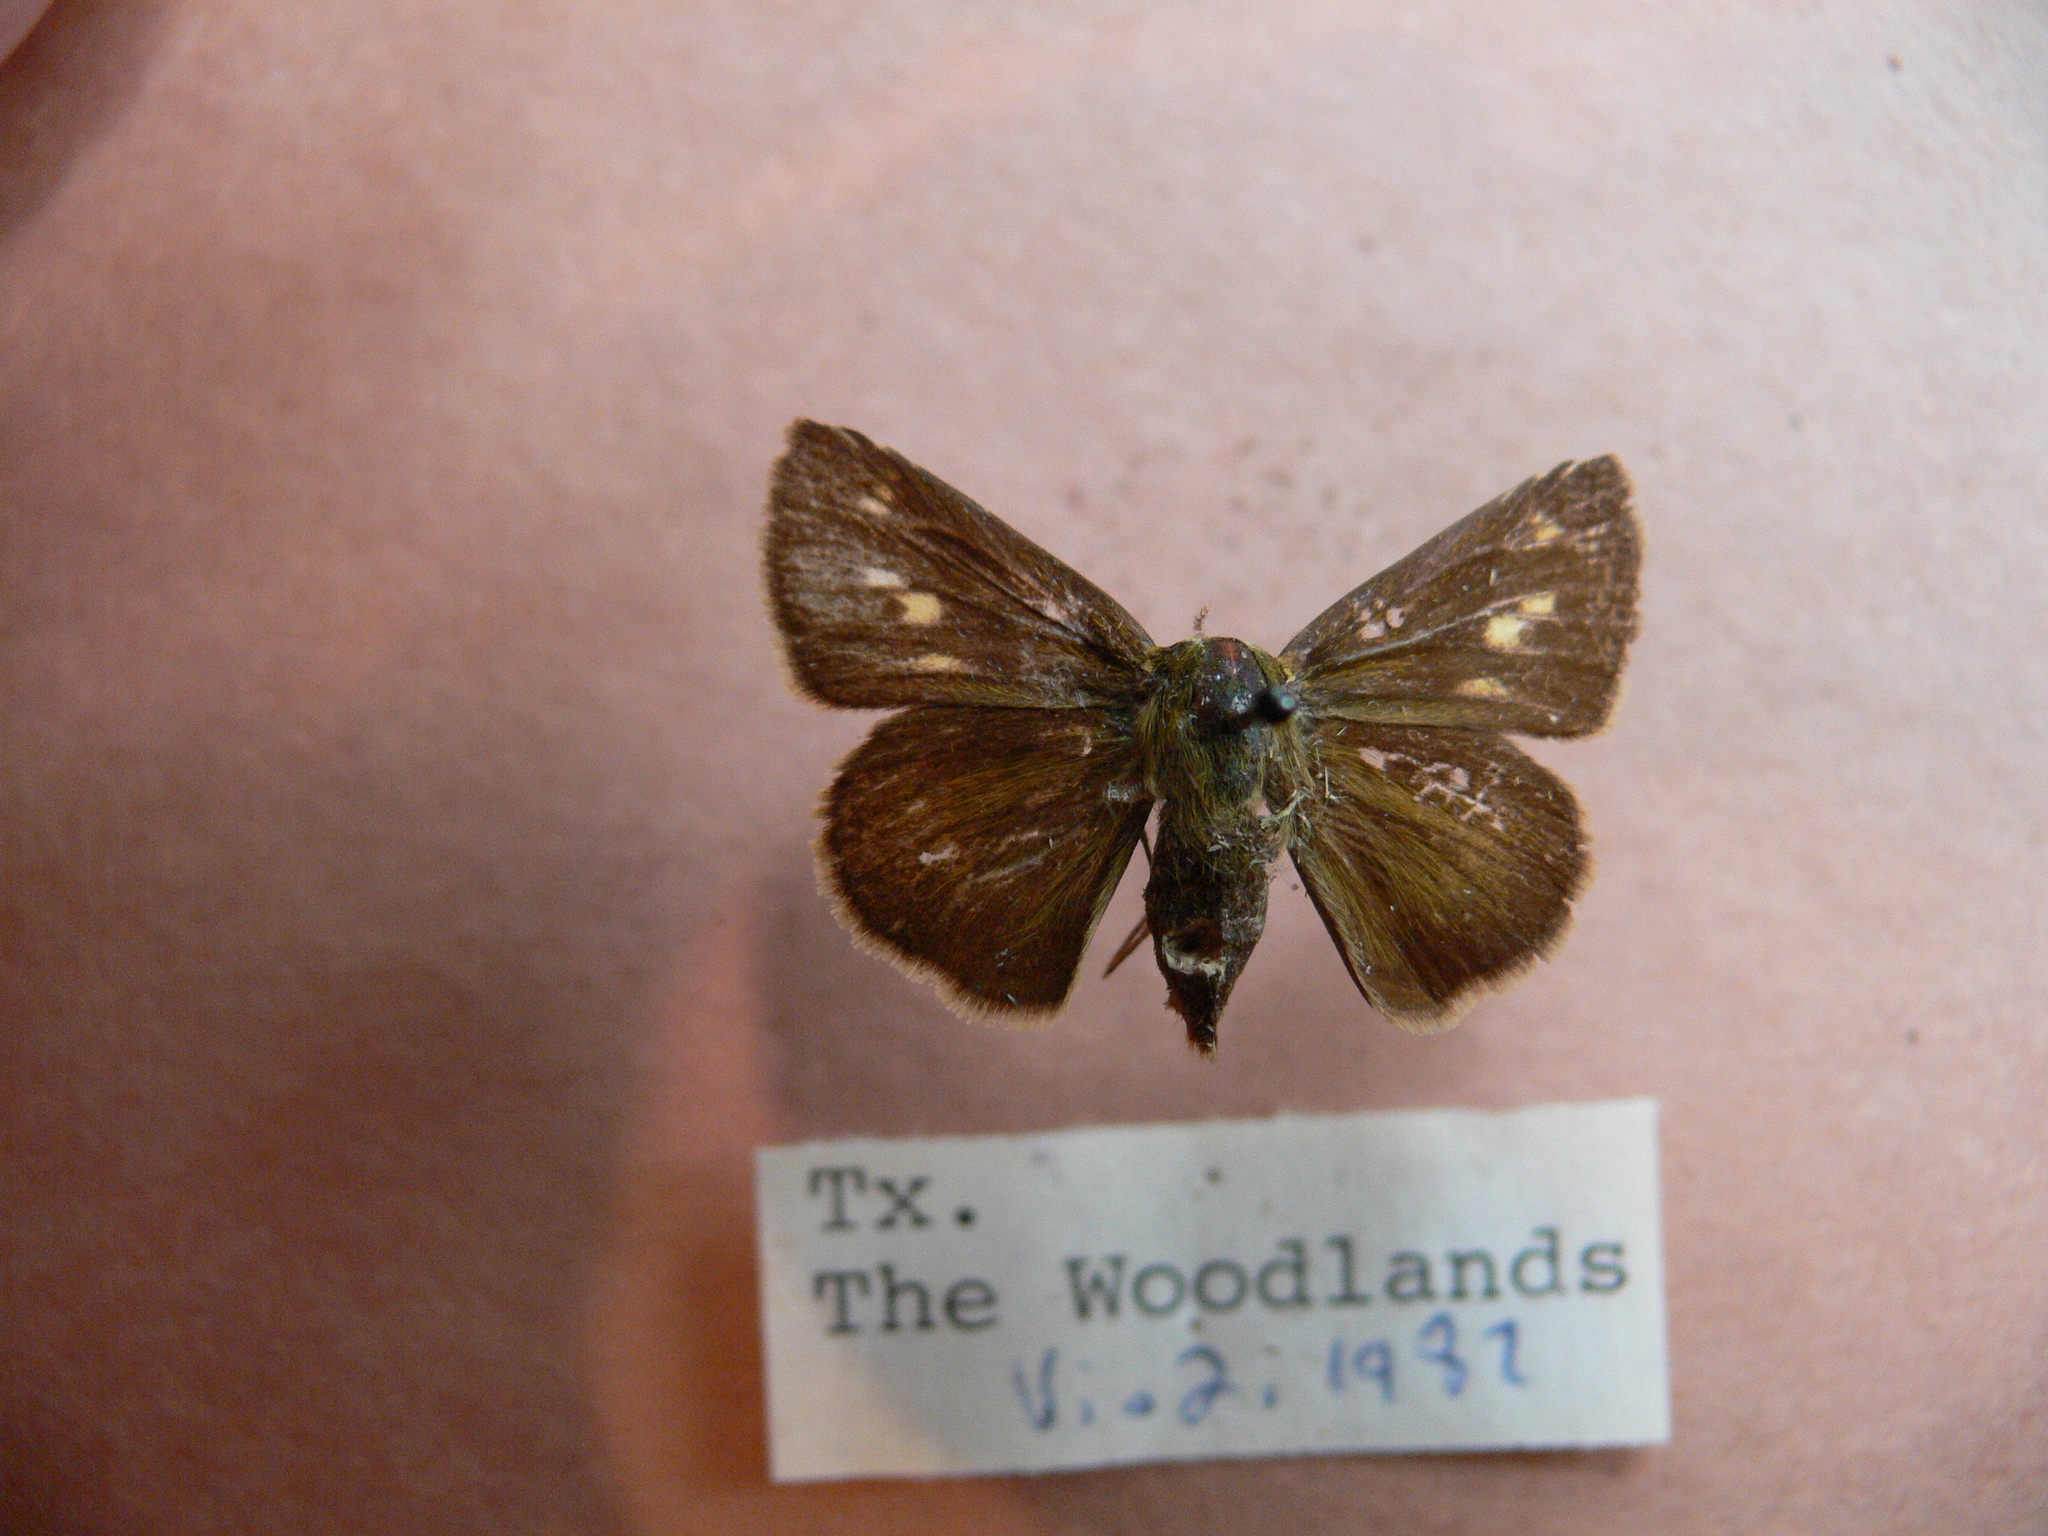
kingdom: Animalia
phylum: Arthropoda
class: Insecta
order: Lepidoptera
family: Hesperiidae
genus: Polites
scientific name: Polites otho
